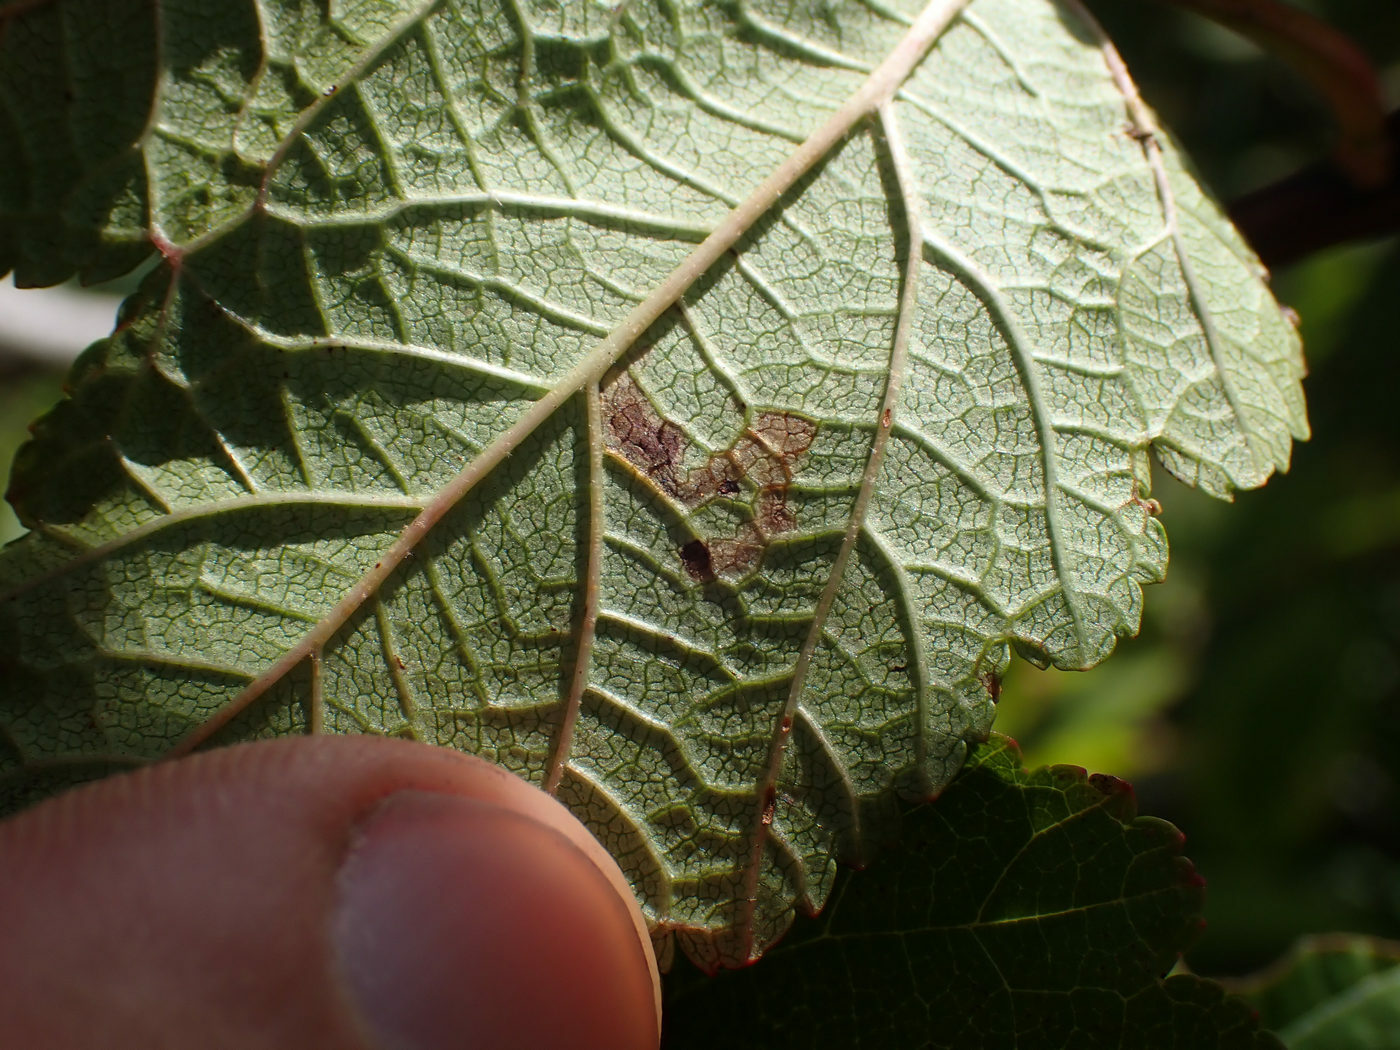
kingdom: Animalia
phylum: Arthropoda
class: Insecta
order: Lepidoptera
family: Nepticulidae
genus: Stigmella
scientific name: Stigmella corylifoliella
